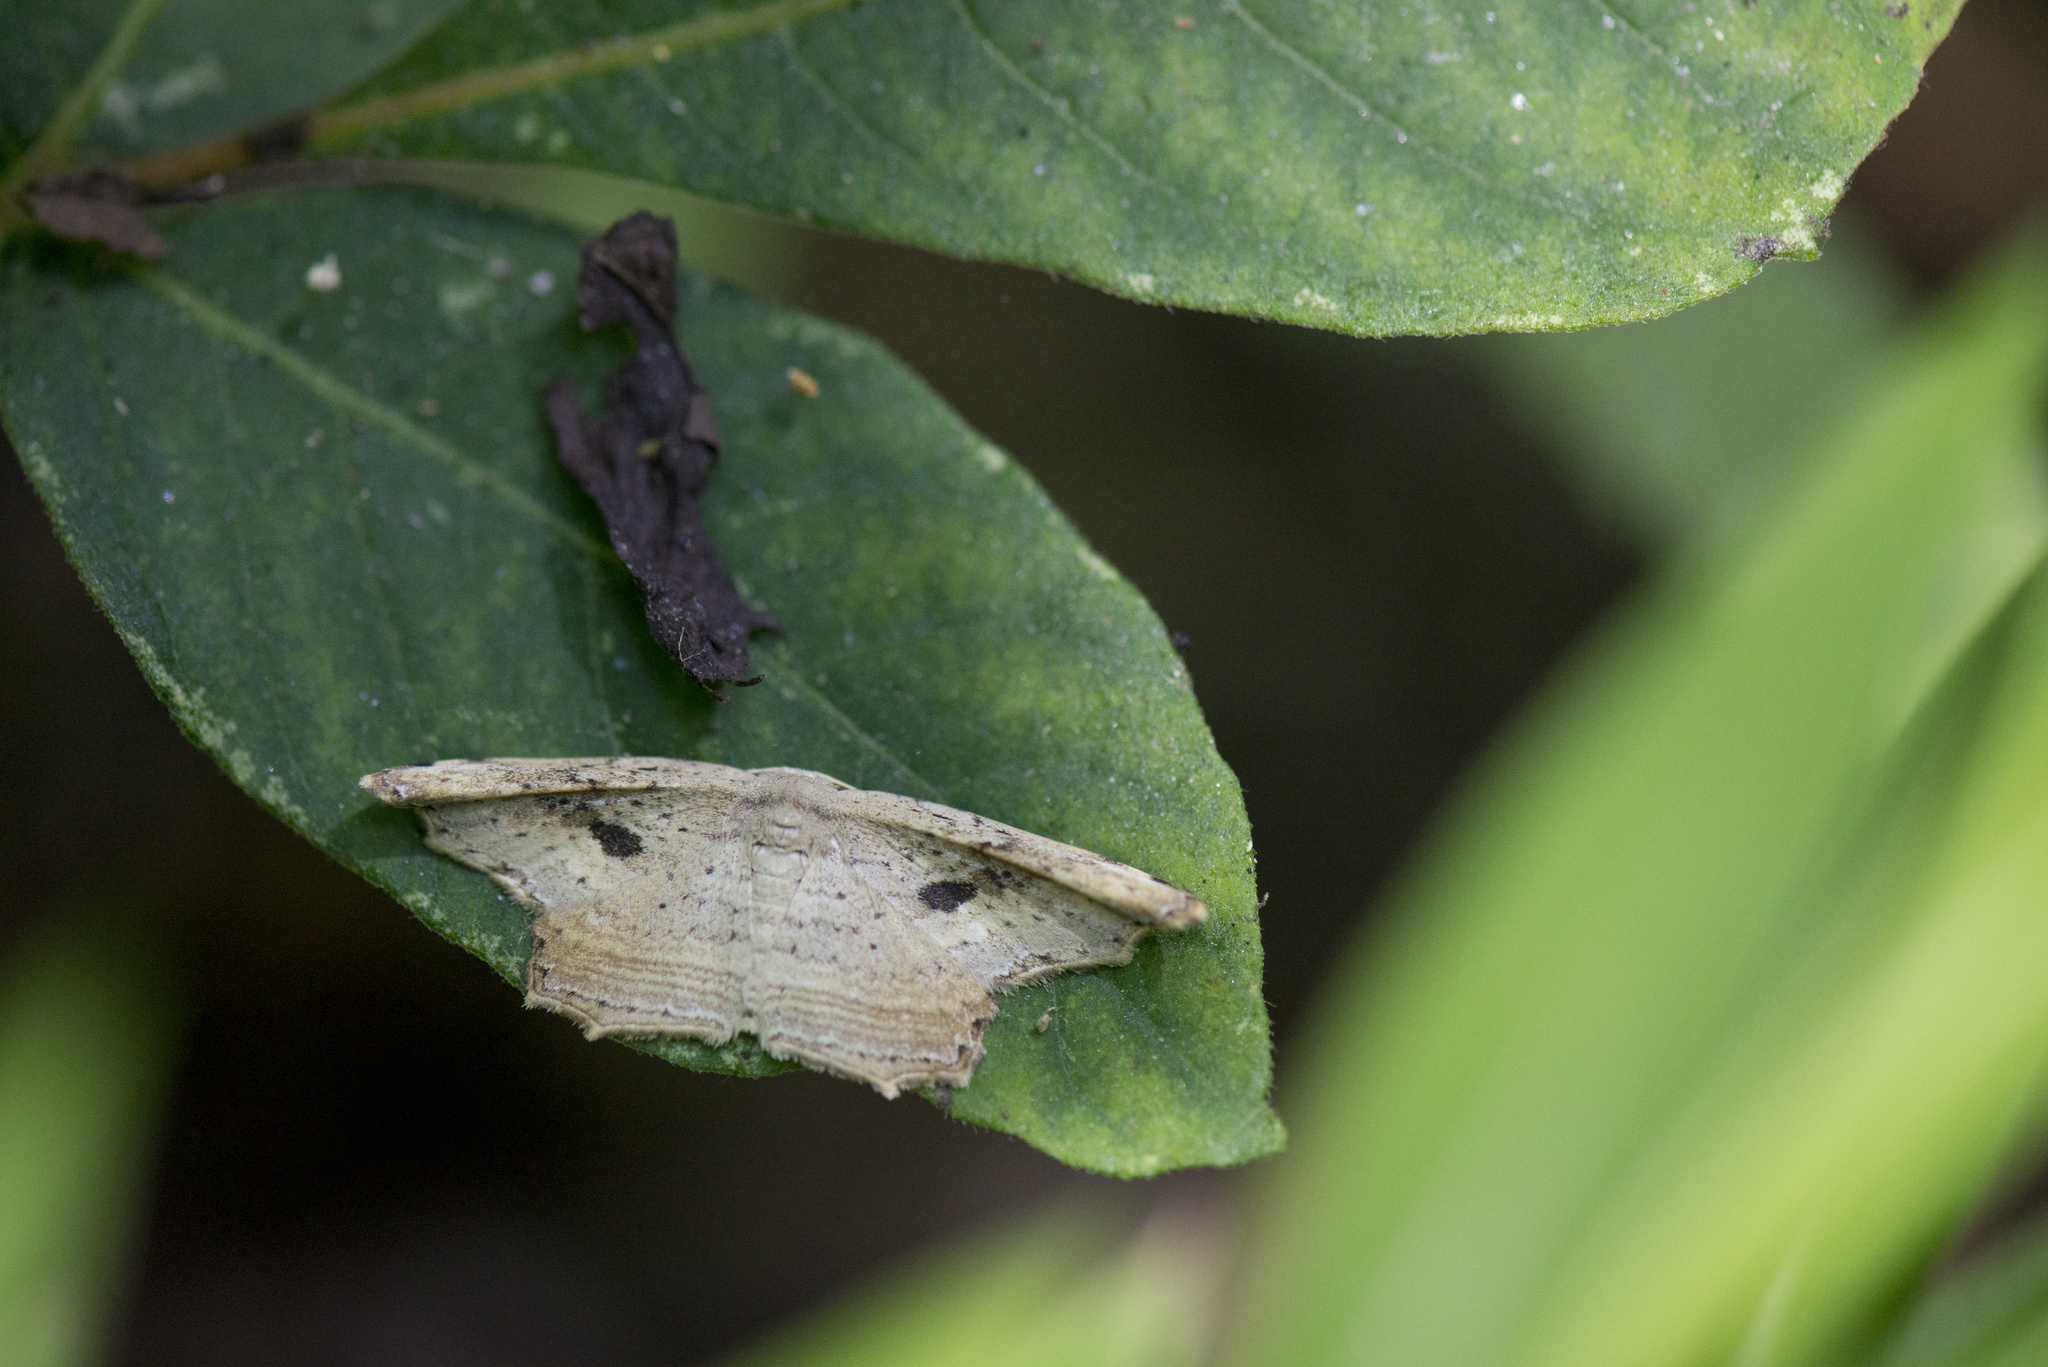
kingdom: Animalia
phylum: Arthropoda
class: Insecta
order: Lepidoptera
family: Drepanidae
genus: Phalacra
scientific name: Phalacra strigata
